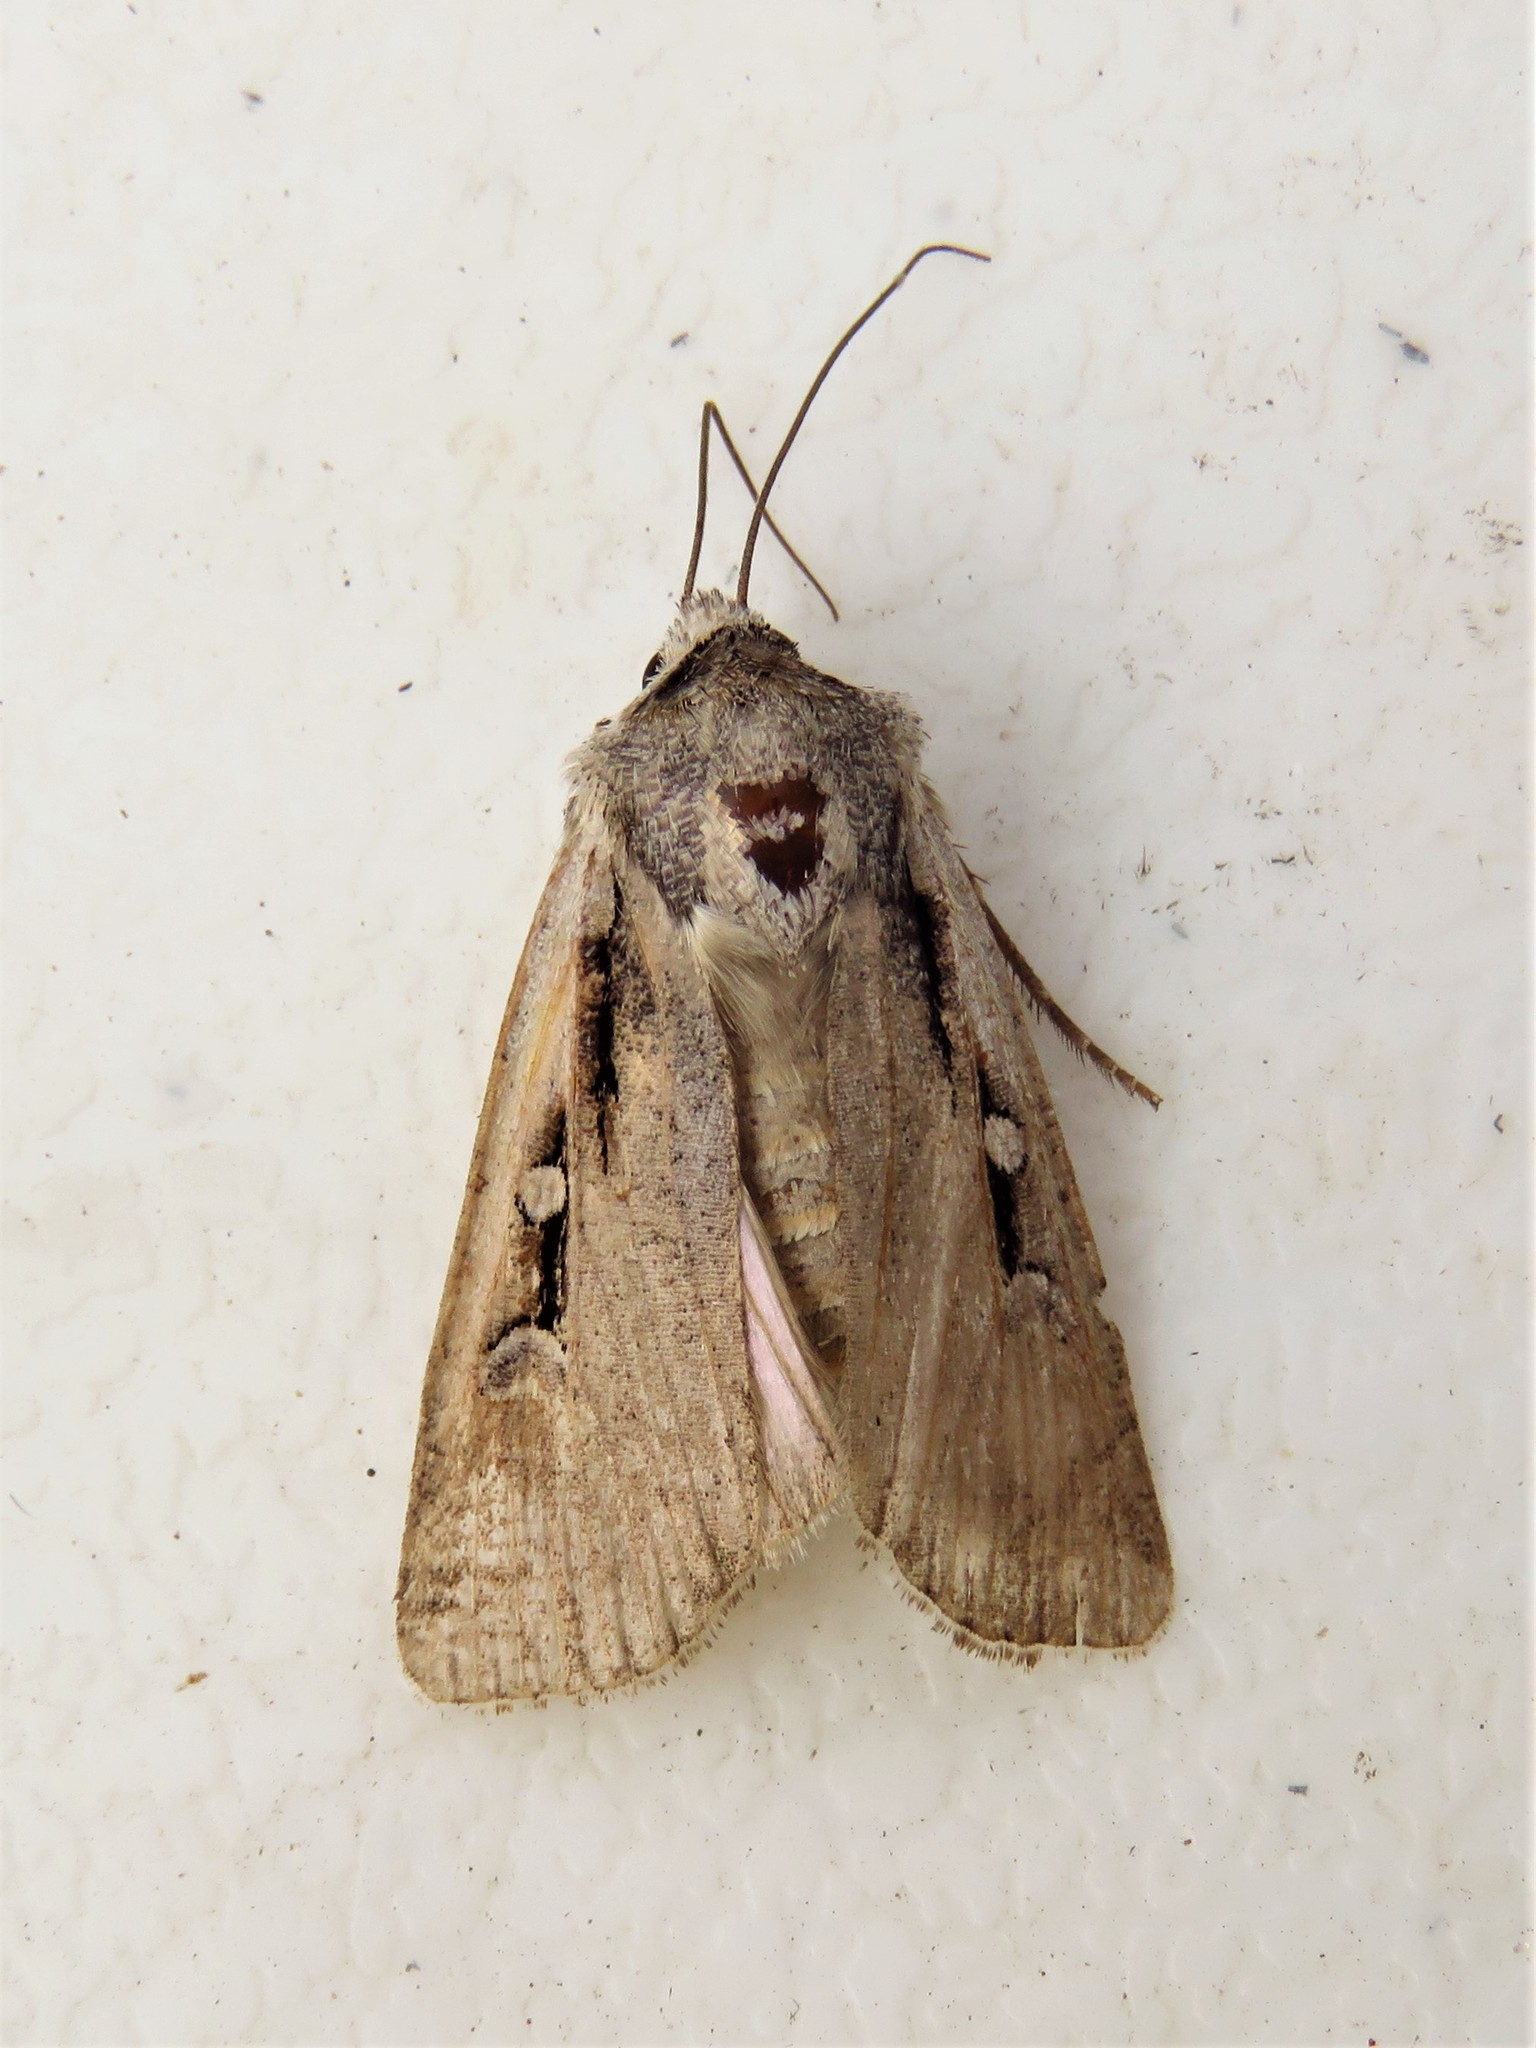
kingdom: Animalia
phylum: Arthropoda
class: Insecta
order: Lepidoptera
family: Noctuidae
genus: Hemieuxoa
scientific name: Hemieuxoa rudens
